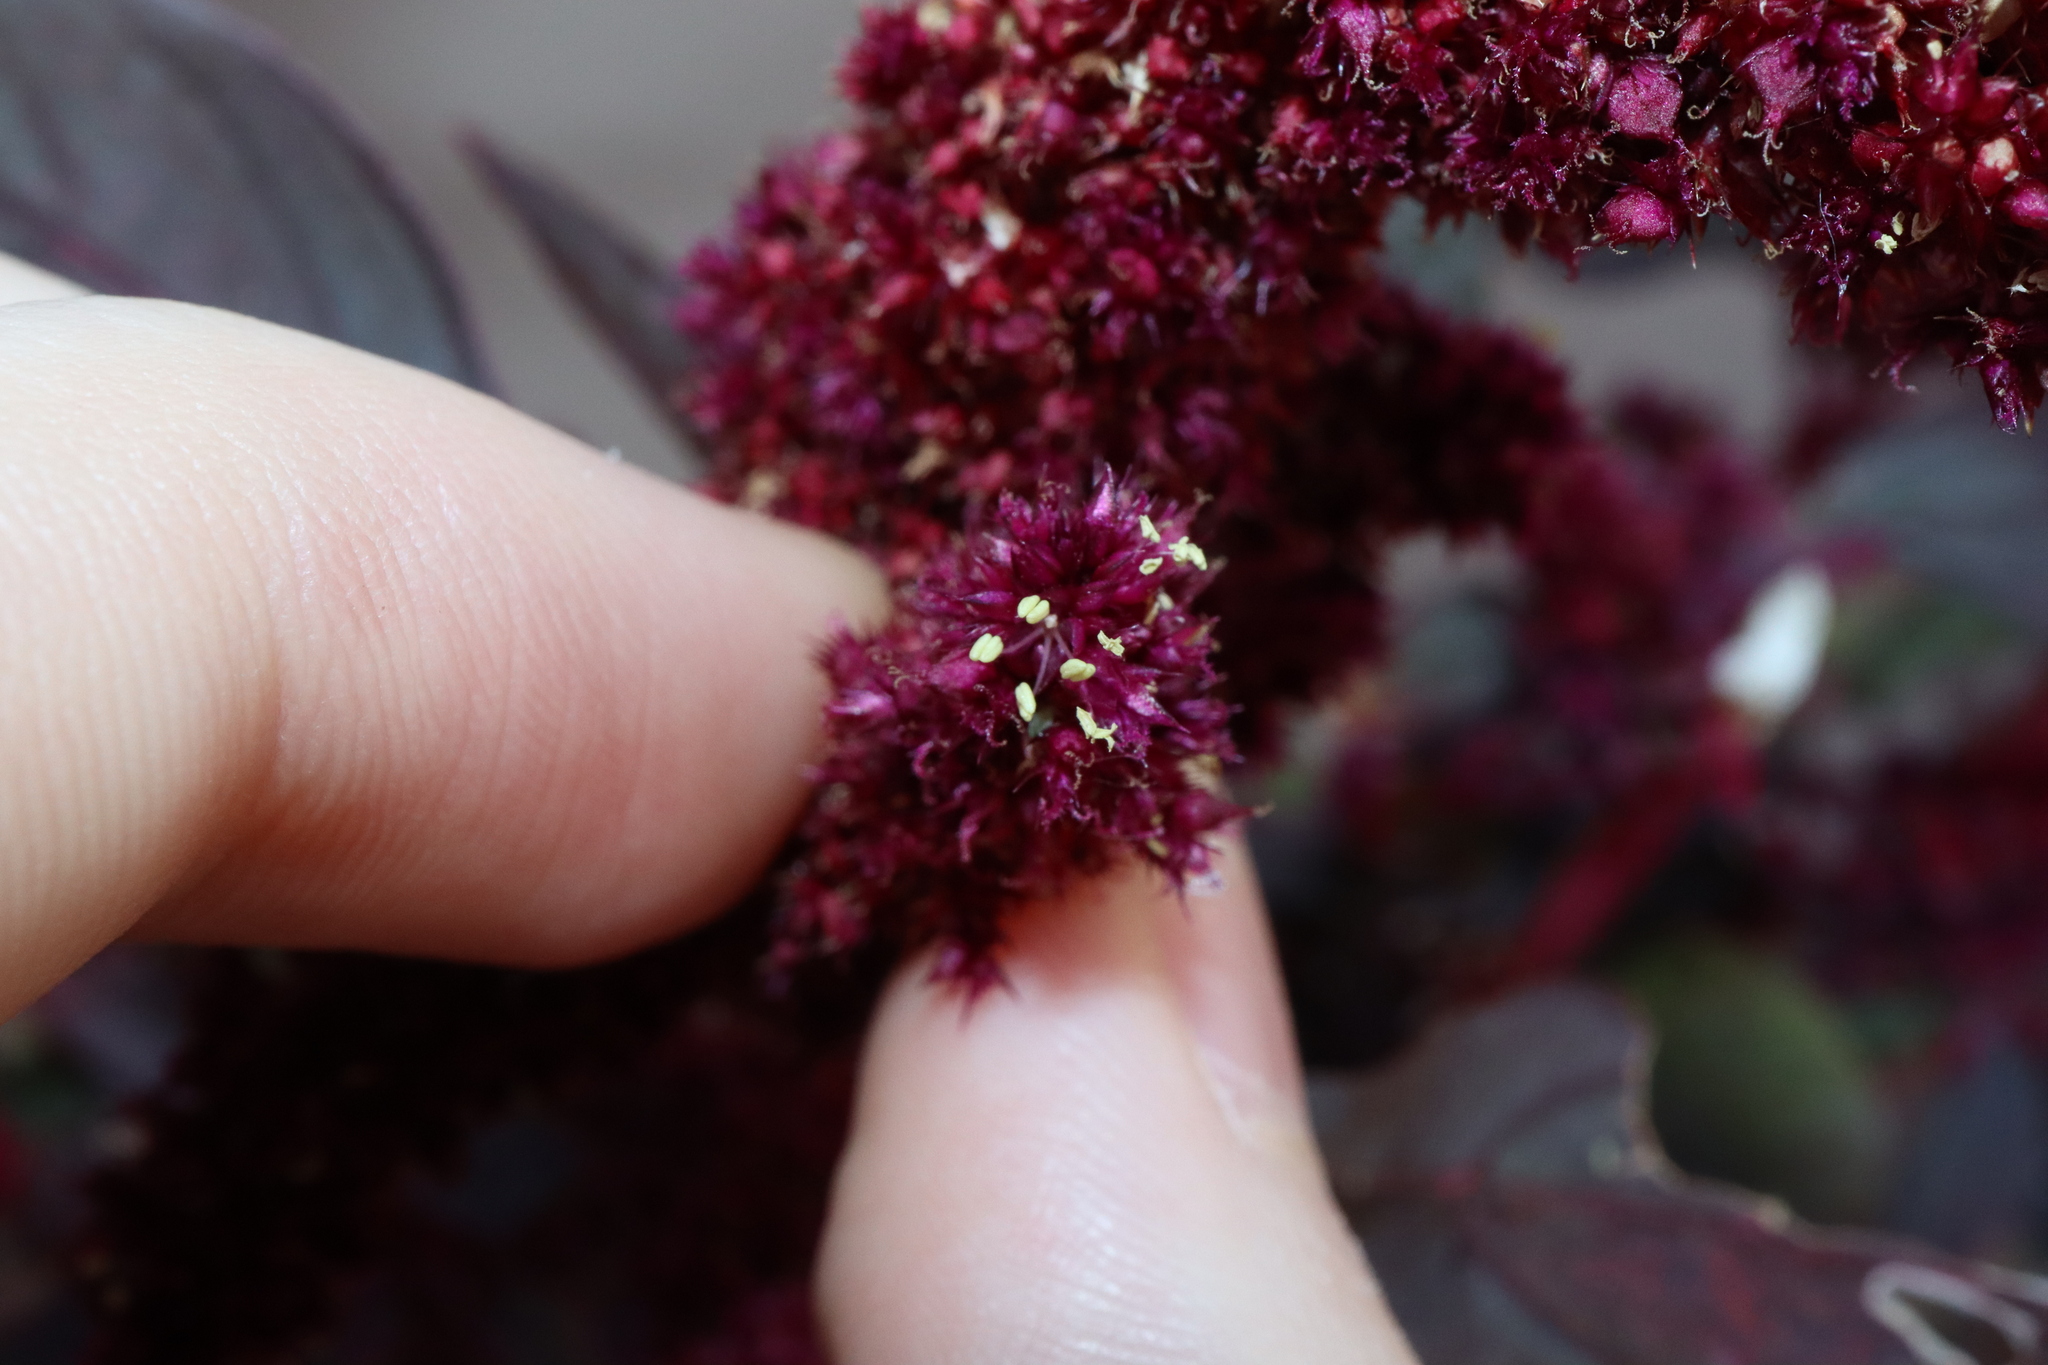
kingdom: Plantae
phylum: Tracheophyta
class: Magnoliopsida
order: Caryophyllales
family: Amaranthaceae
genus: Amaranthus
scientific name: Amaranthus cruentus
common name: Purple amaranth
